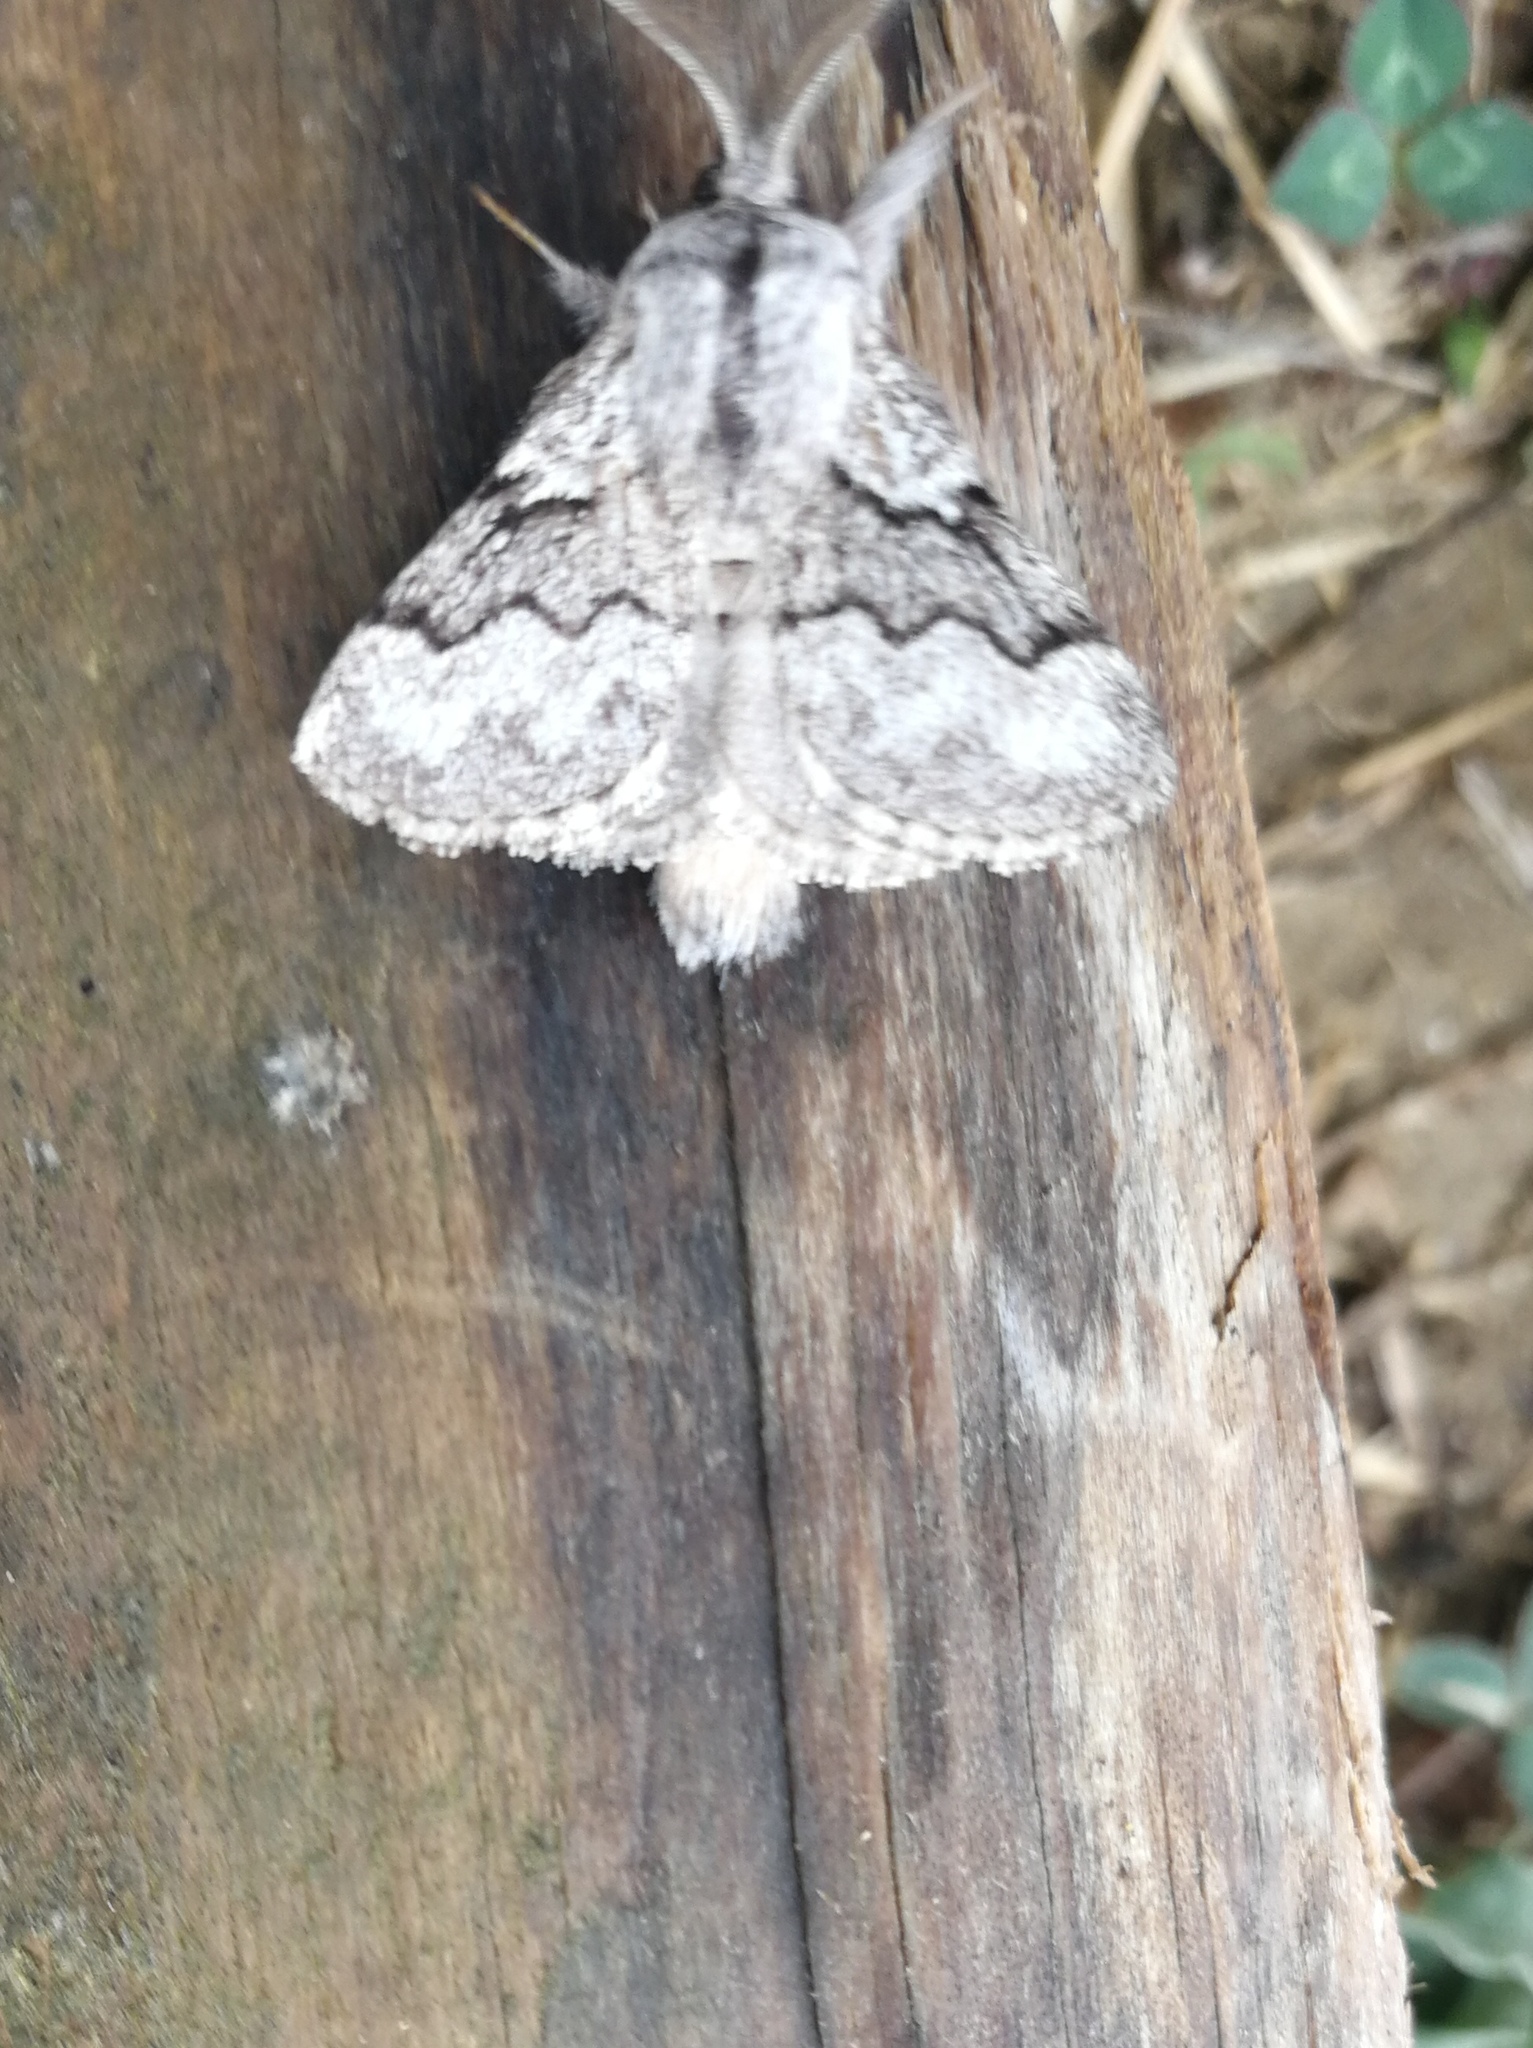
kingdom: Animalia
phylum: Arthropoda
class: Insecta
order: Lepidoptera
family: Lasiocampidae
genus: Trichiura
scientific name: Trichiura crataegi
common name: Pale eggar
